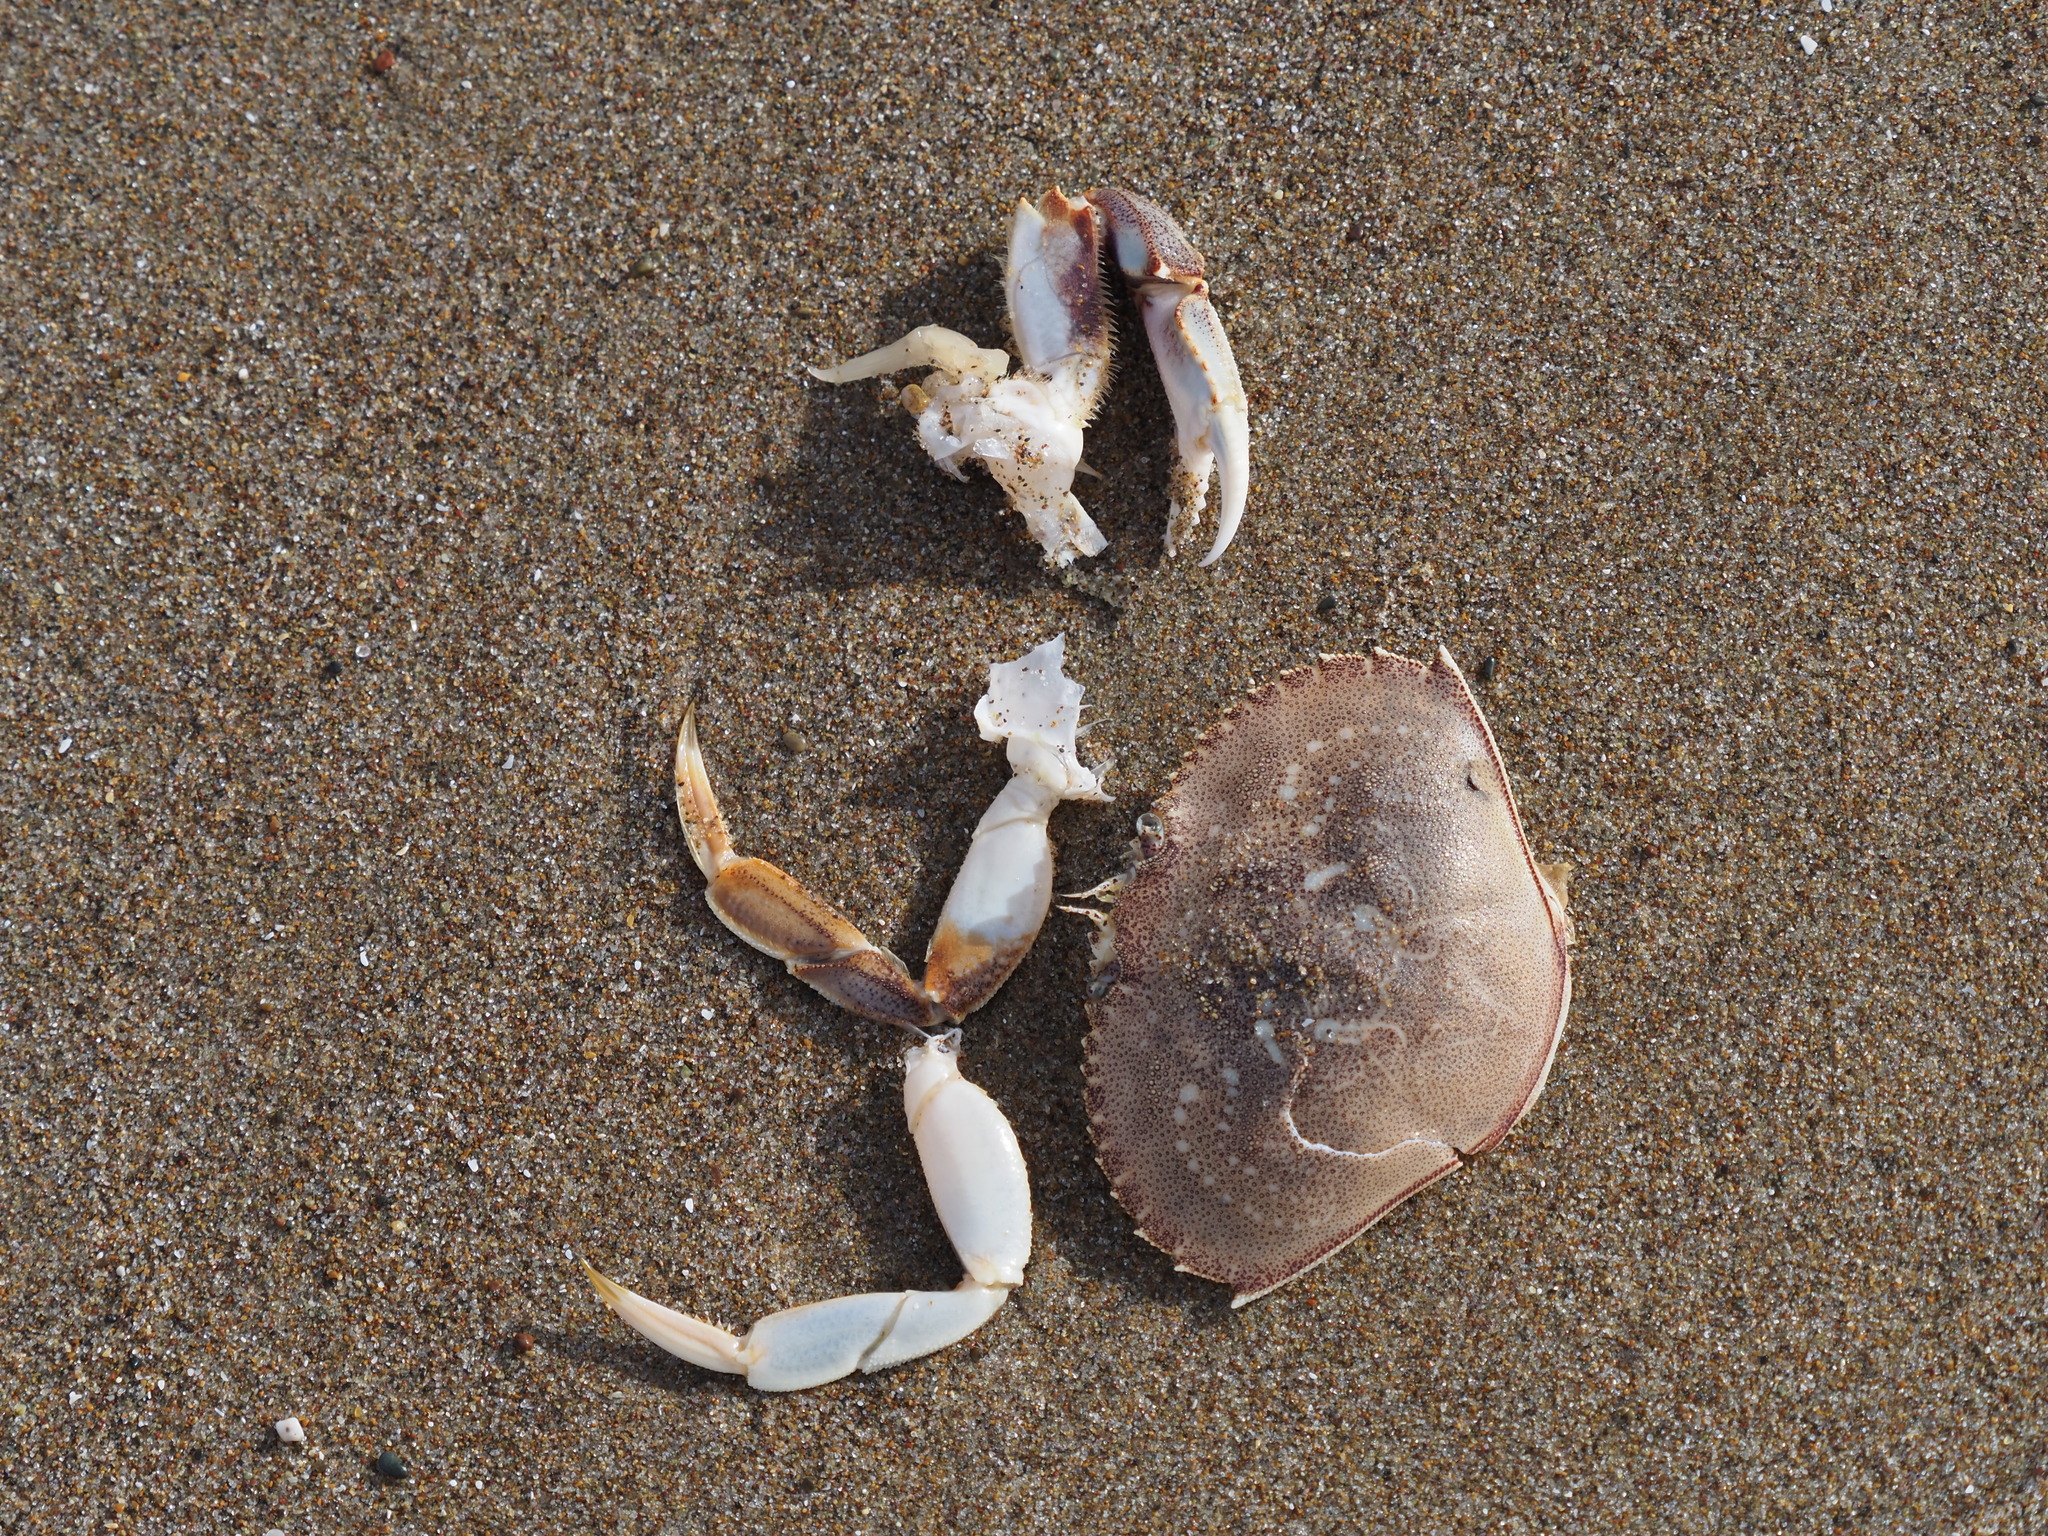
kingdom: Animalia
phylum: Arthropoda
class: Malacostraca
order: Decapoda
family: Cancridae
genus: Metacarcinus
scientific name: Metacarcinus magister
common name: Californian crab
